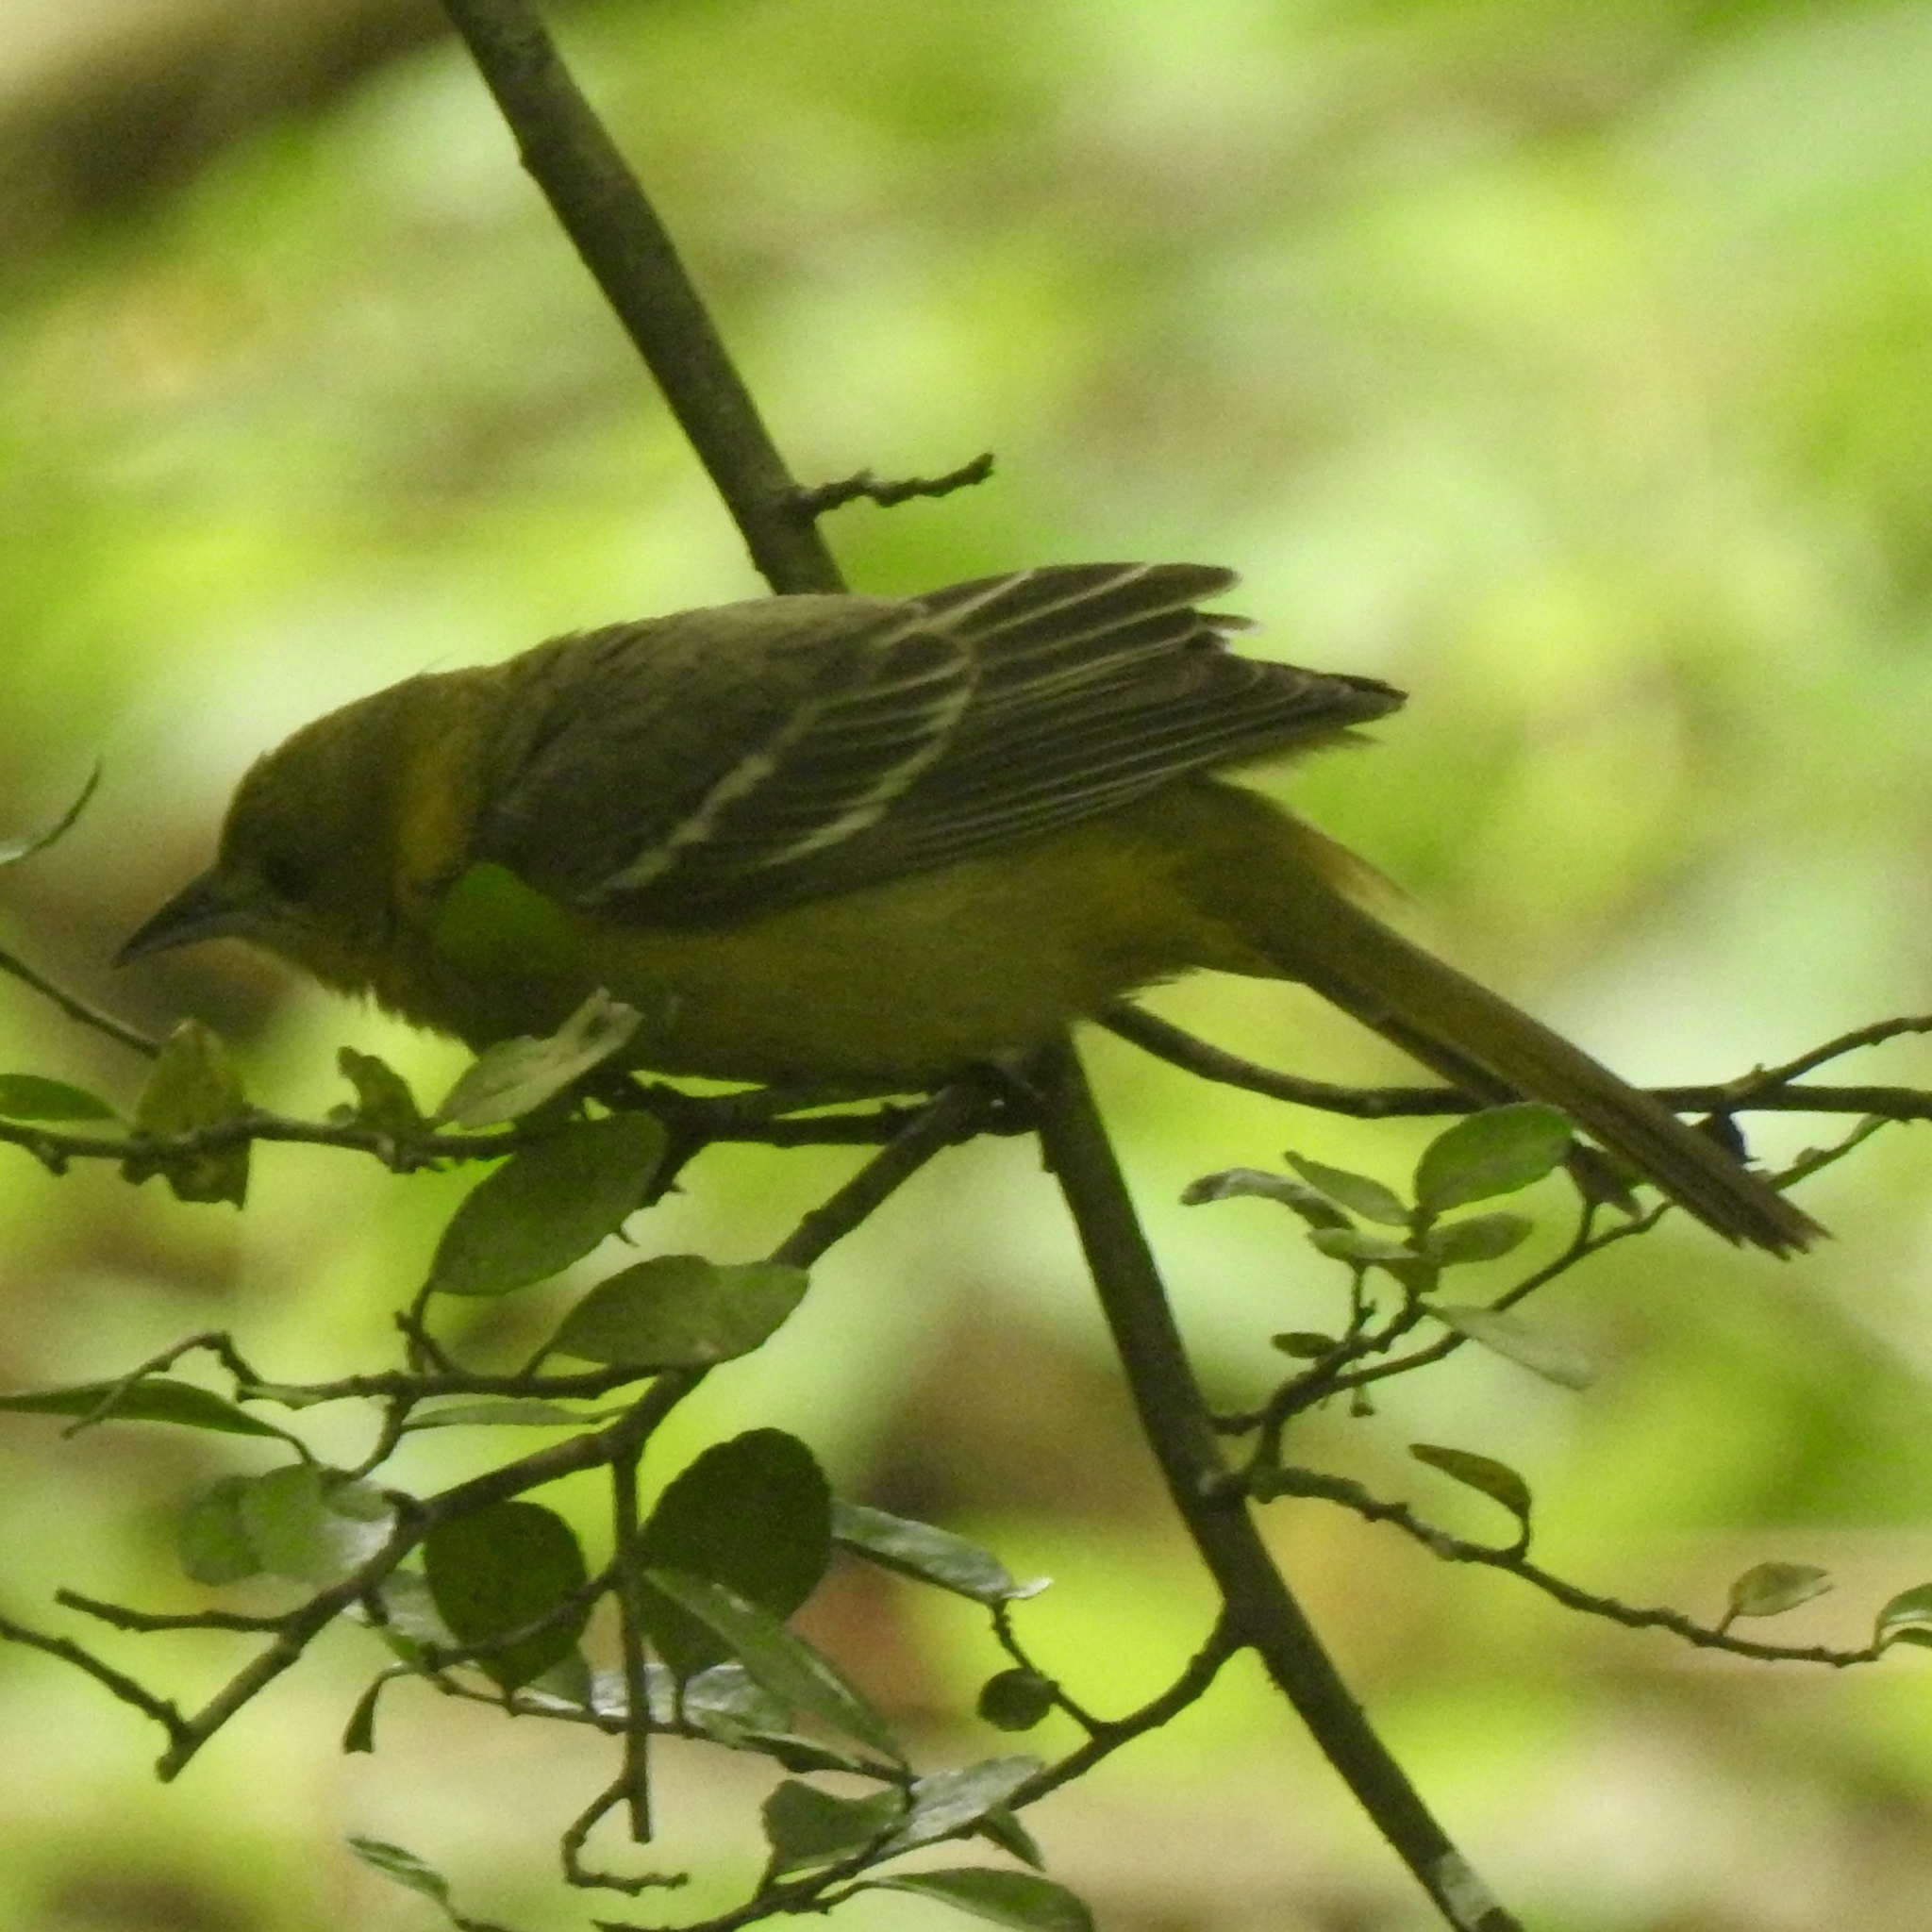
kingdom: Animalia
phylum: Chordata
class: Aves
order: Passeriformes
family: Icteridae
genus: Icterus
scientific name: Icterus spurius
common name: Orchard oriole
